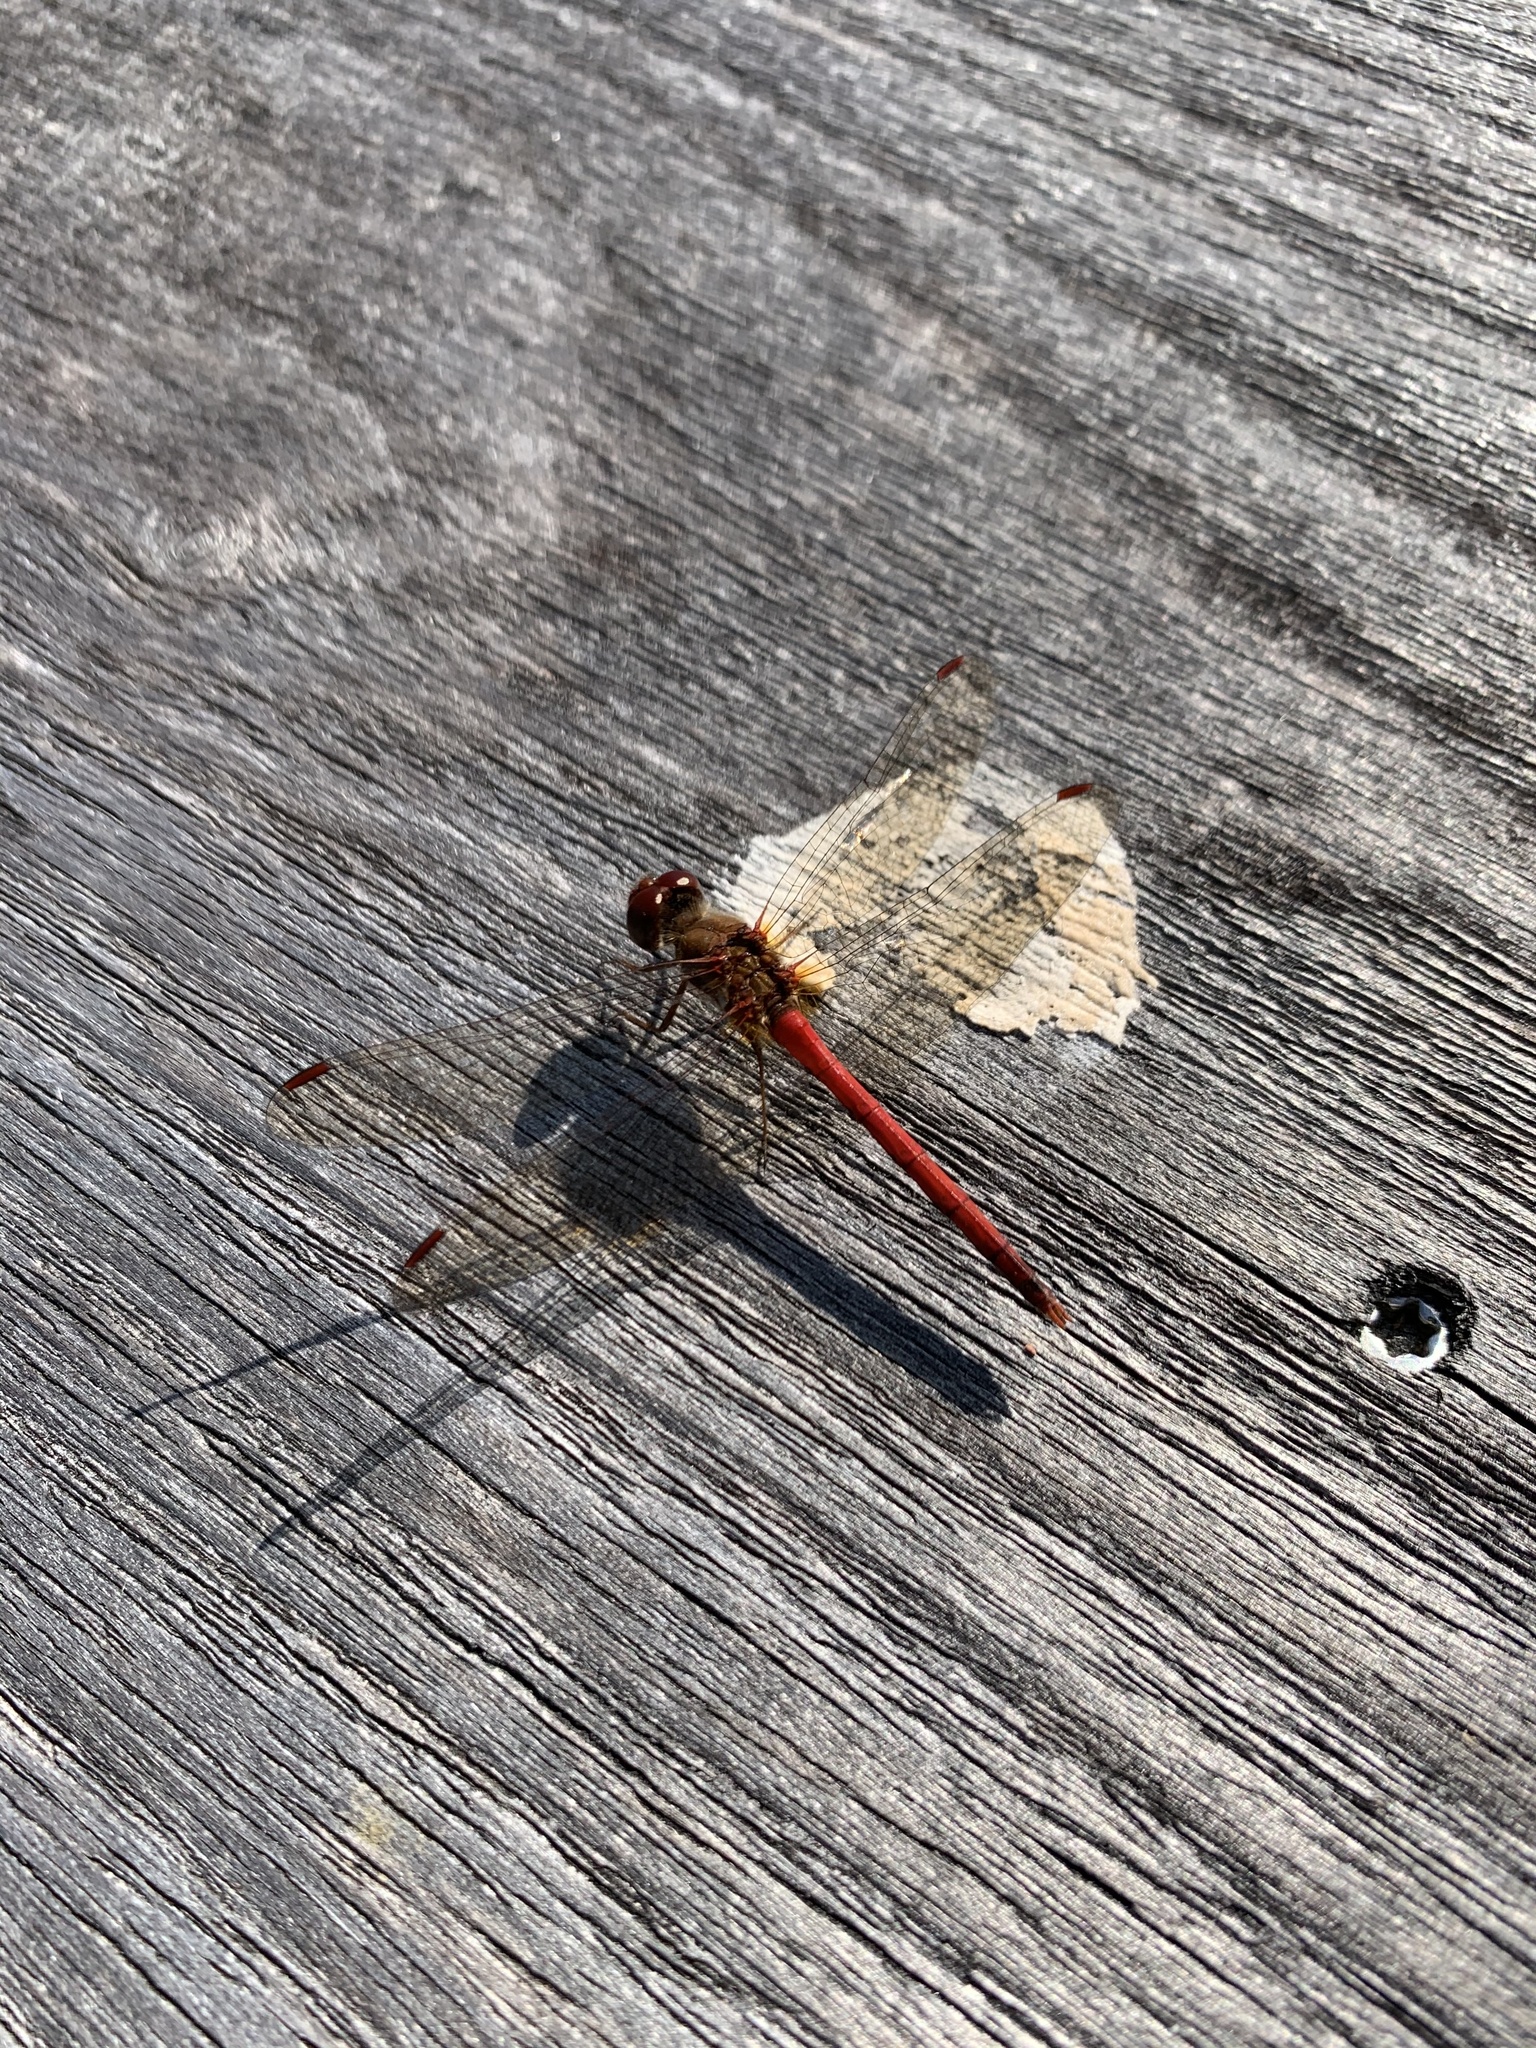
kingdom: Animalia
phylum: Arthropoda
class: Insecta
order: Odonata
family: Libellulidae
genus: Sympetrum
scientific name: Sympetrum vicinum
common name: Autumn meadowhawk
